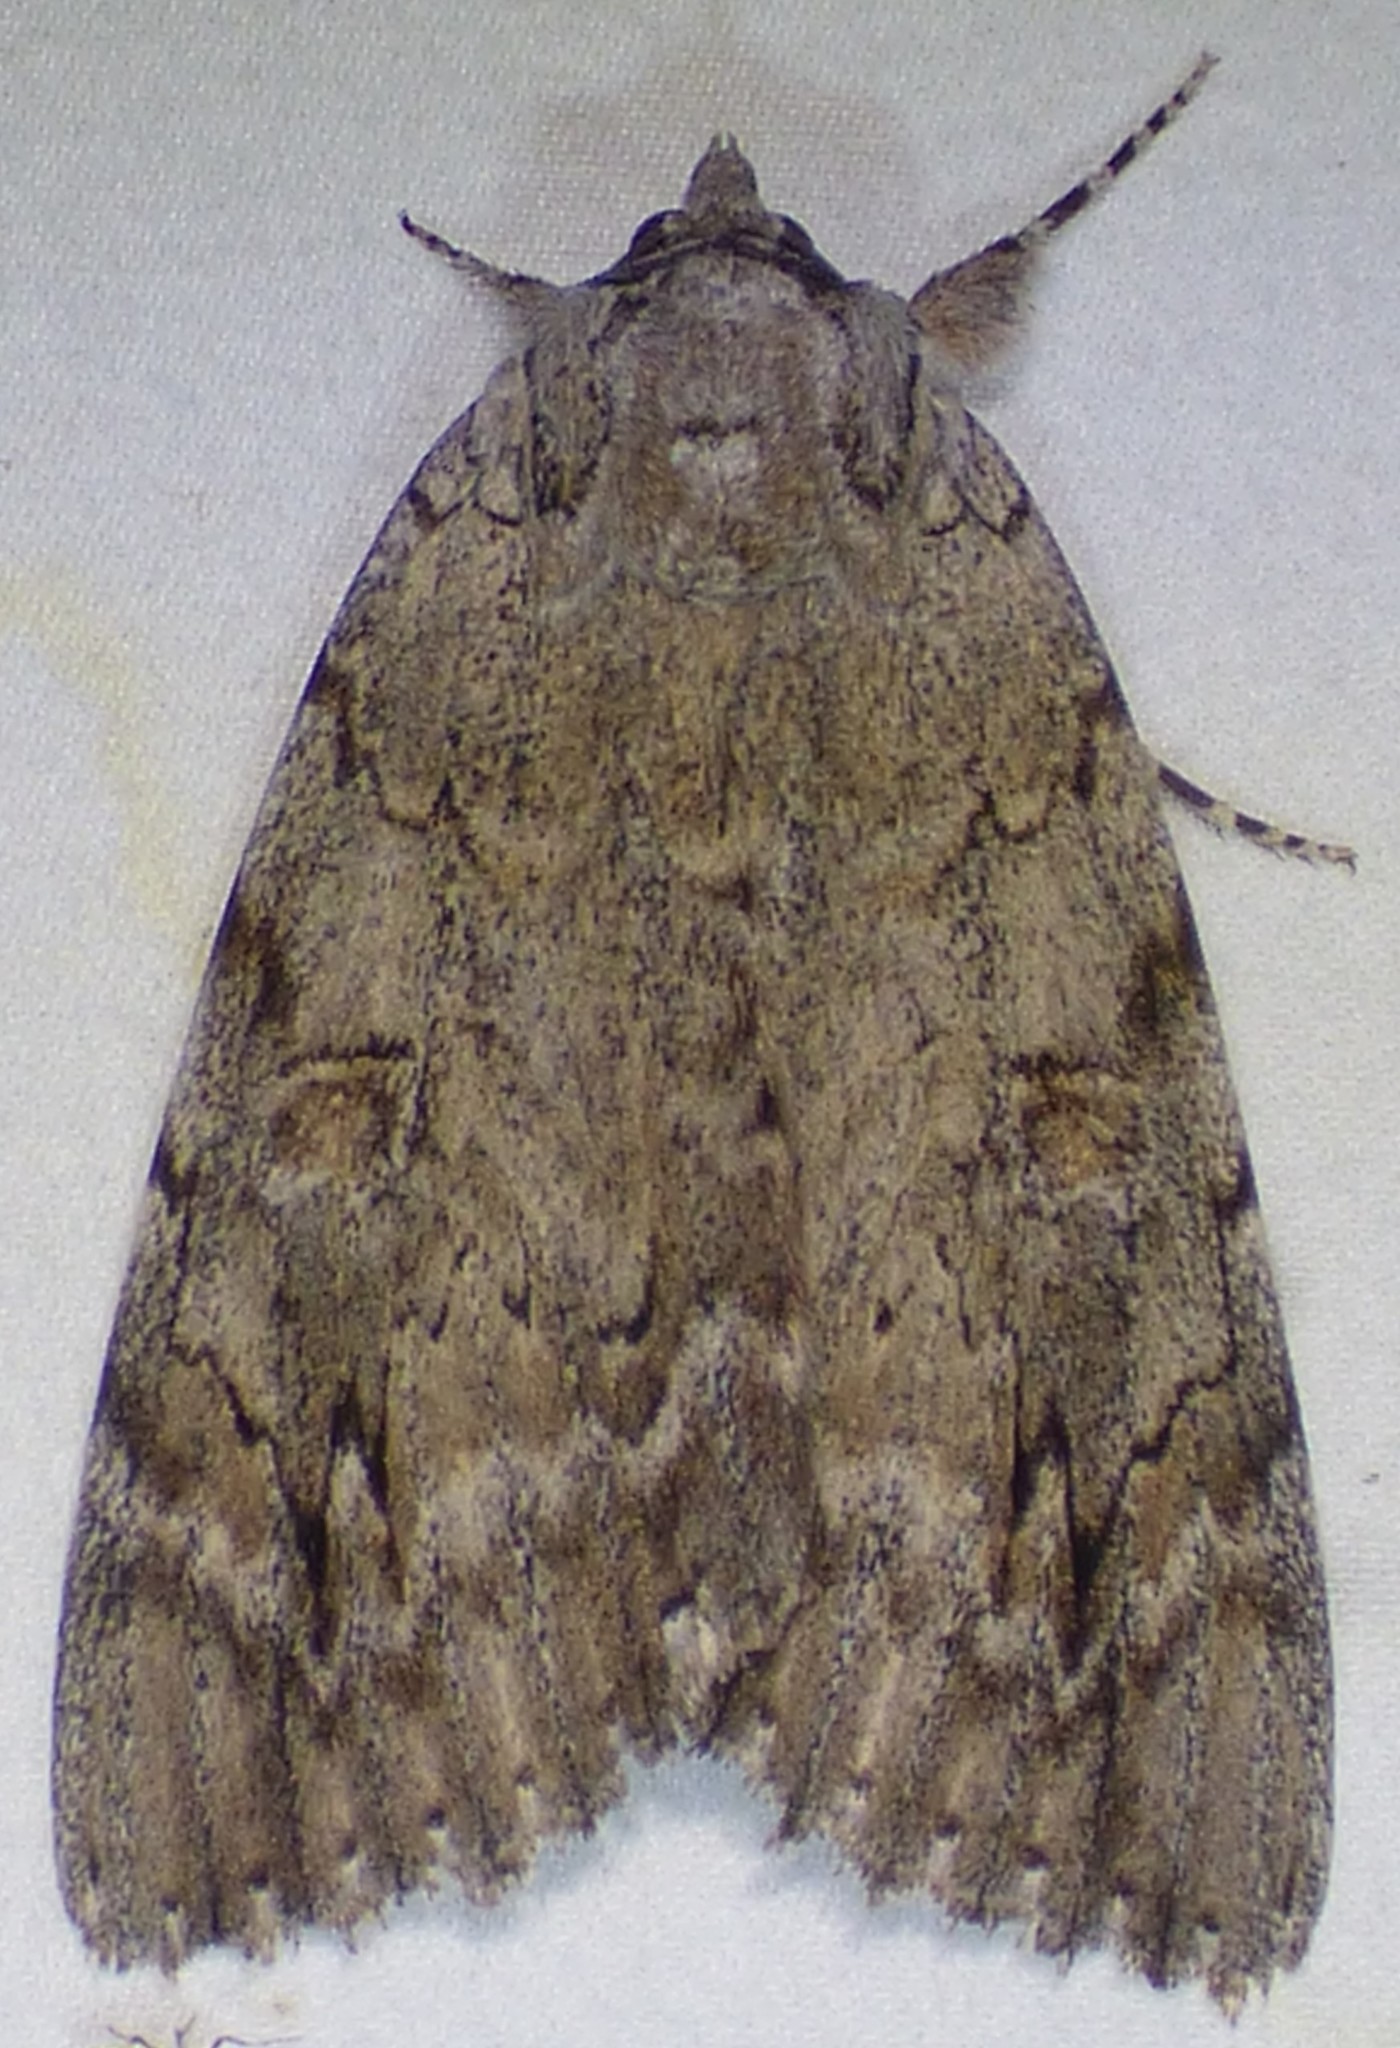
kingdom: Animalia
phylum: Arthropoda
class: Insecta
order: Lepidoptera
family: Erebidae
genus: Catocala
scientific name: Catocala robinsoni
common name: Robinson's underwing
